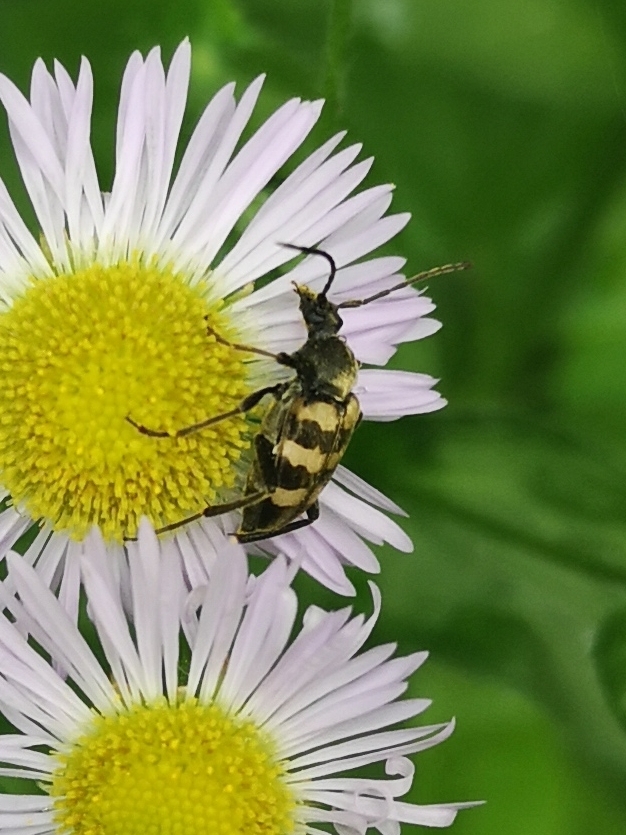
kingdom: Animalia
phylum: Arthropoda
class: Insecta
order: Coleoptera
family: Cerambycidae
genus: Pachytodes
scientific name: Pachytodes
